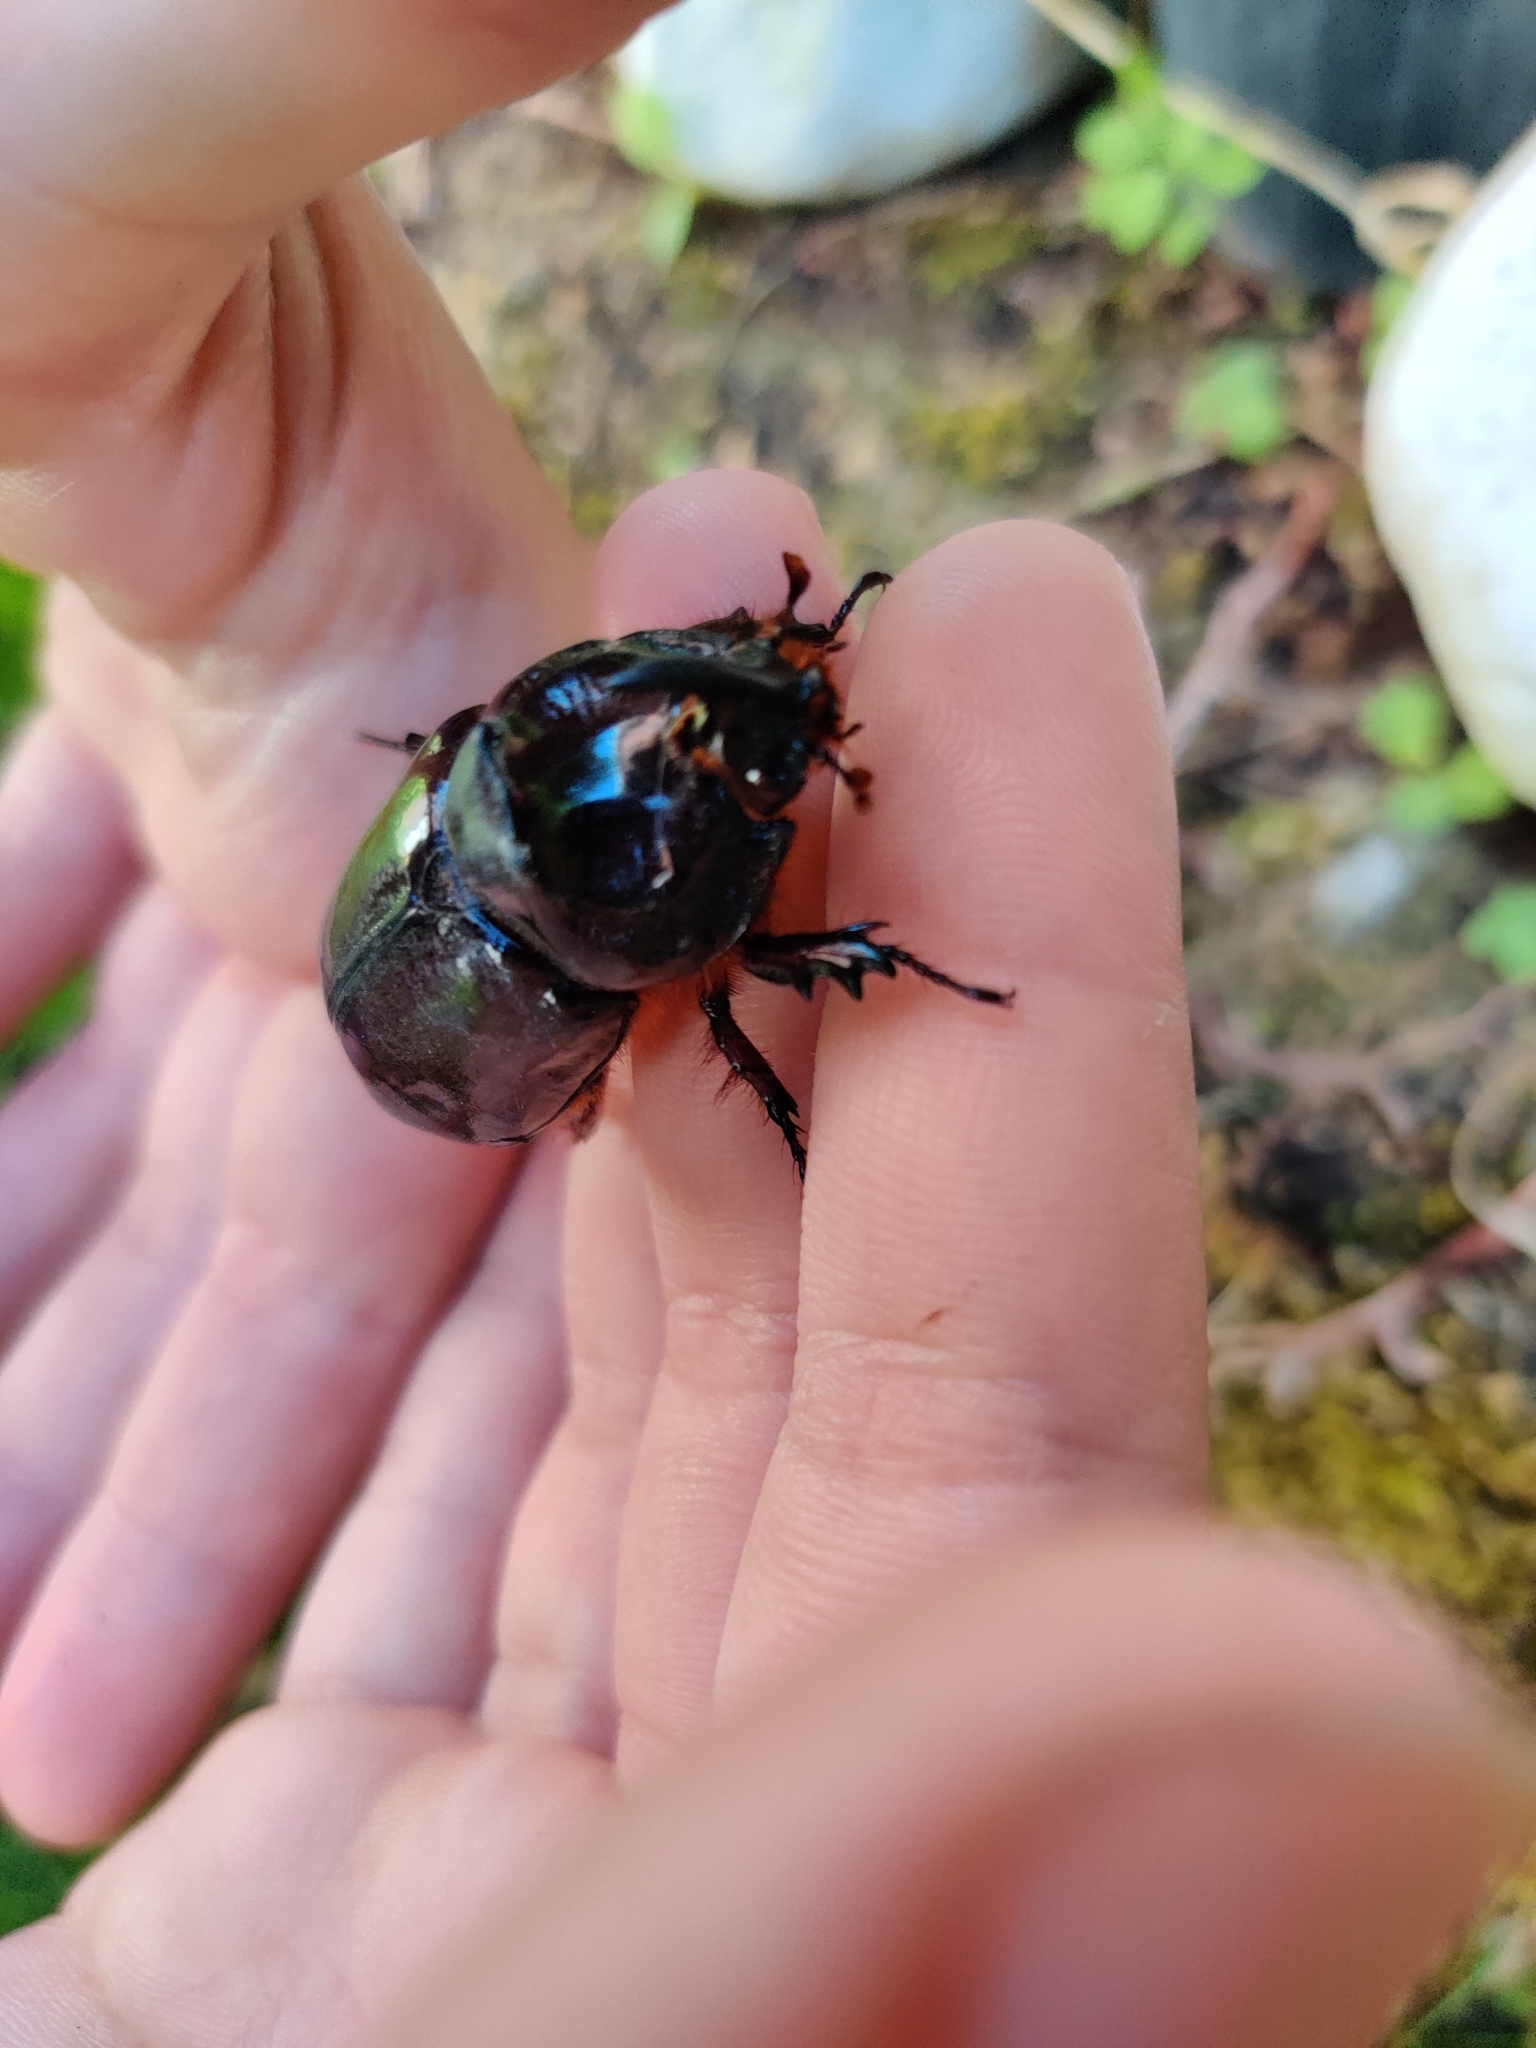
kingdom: Animalia
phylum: Arthropoda
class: Insecta
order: Coleoptera
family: Scarabaeidae
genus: Oryctes
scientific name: Oryctes nasicornis
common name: European rhinoceros beetle
